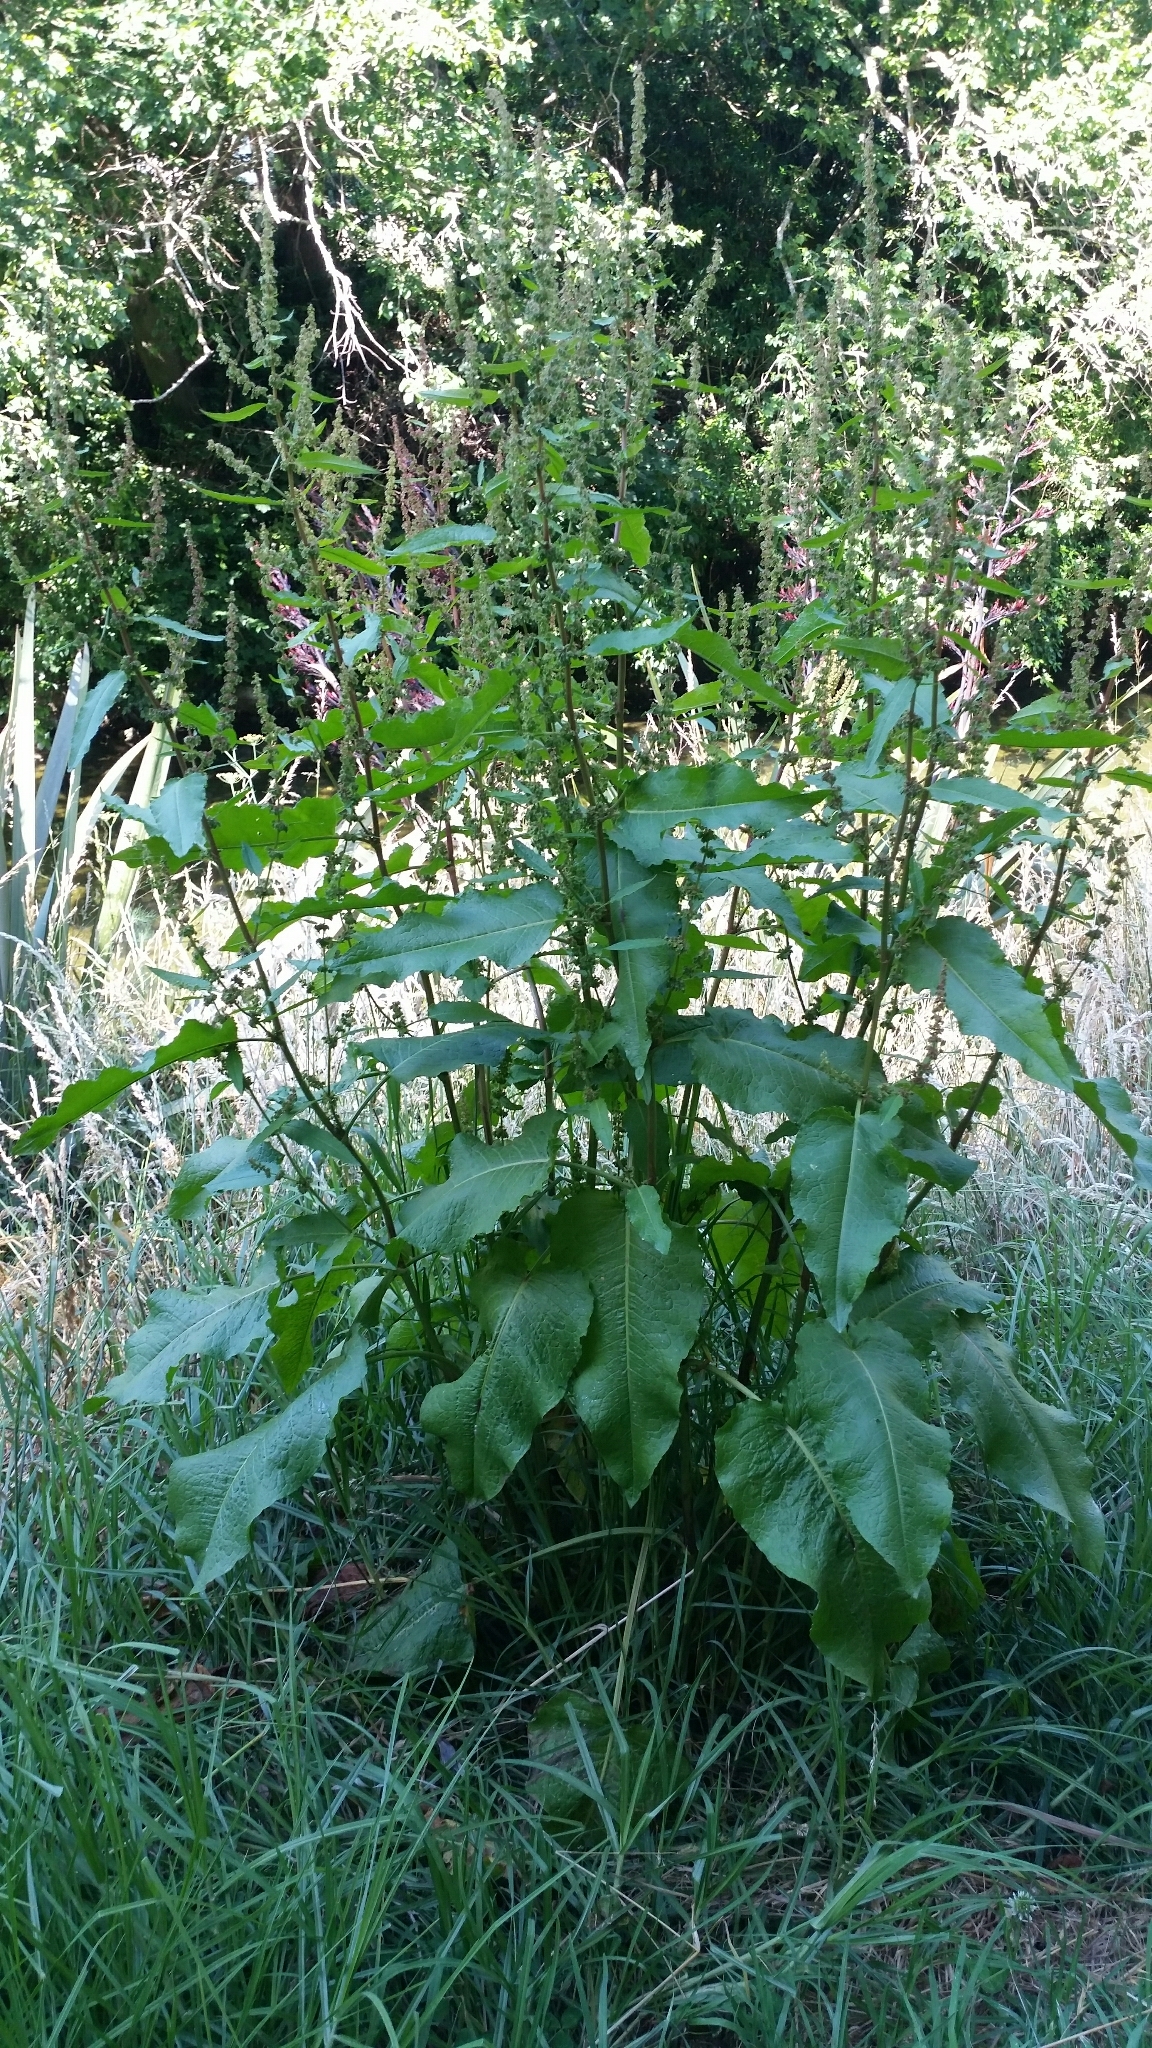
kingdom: Plantae
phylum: Tracheophyta
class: Magnoliopsida
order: Caryophyllales
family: Polygonaceae
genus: Rumex
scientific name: Rumex obtusifolius
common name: Bitter dock
